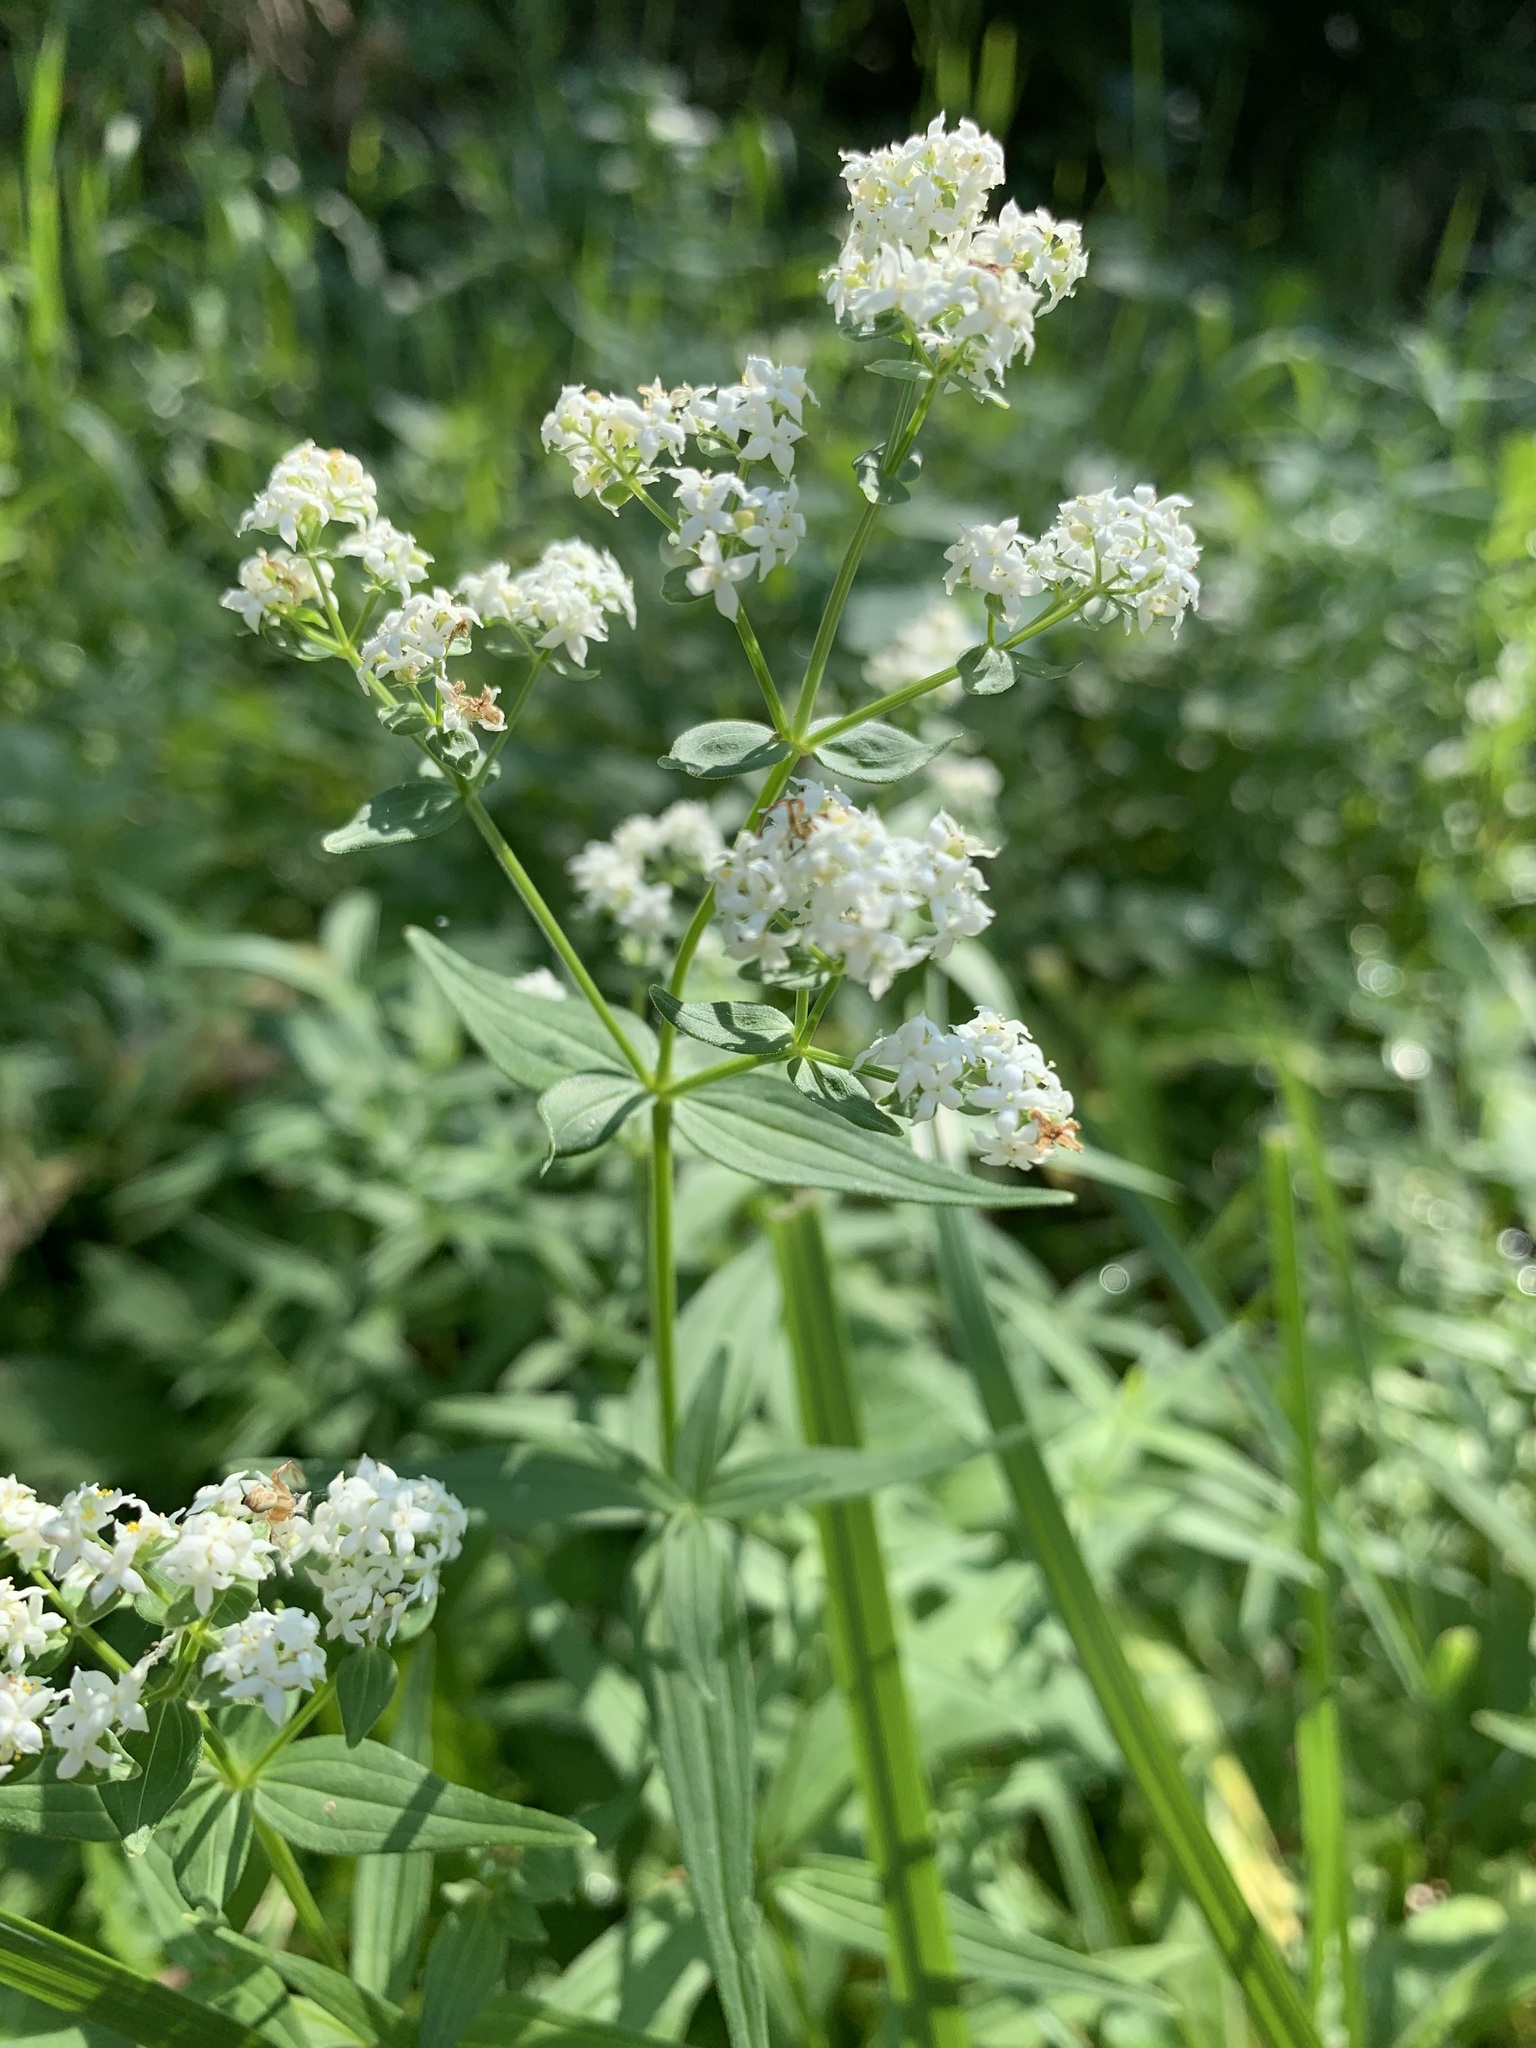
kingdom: Plantae
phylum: Tracheophyta
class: Magnoliopsida
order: Gentianales
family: Rubiaceae
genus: Galium
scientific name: Galium rubioides
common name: European bedstraw
